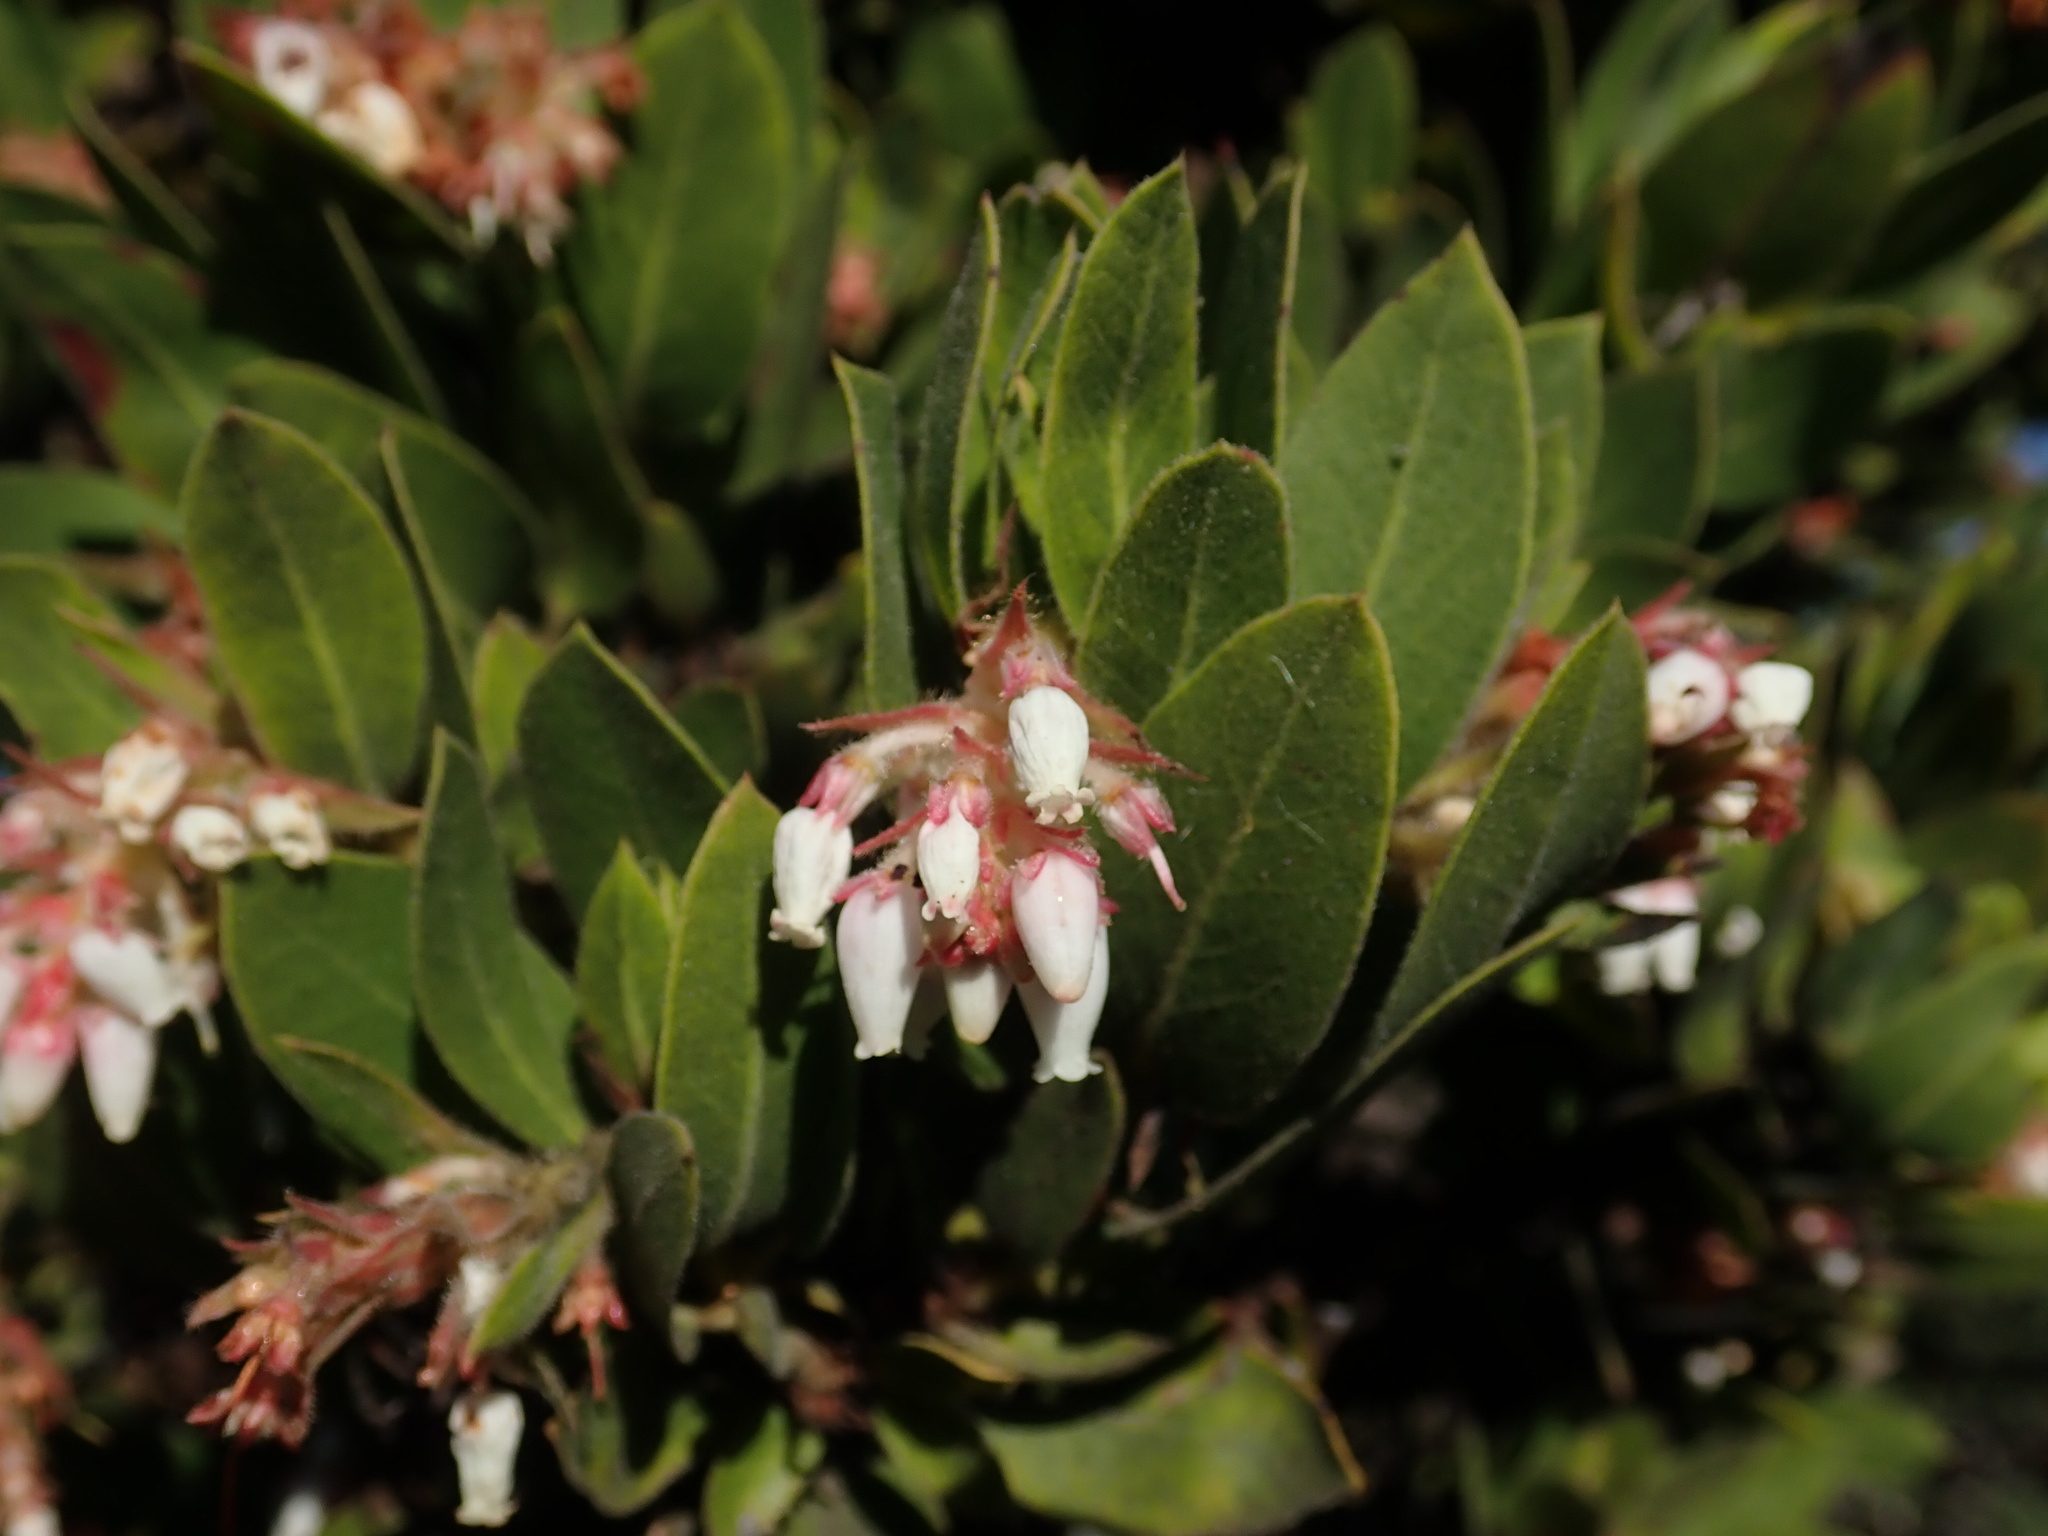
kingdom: Plantae
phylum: Tracheophyta
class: Magnoliopsida
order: Ericales
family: Ericaceae
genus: Arctostaphylos
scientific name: Arctostaphylos virgata
